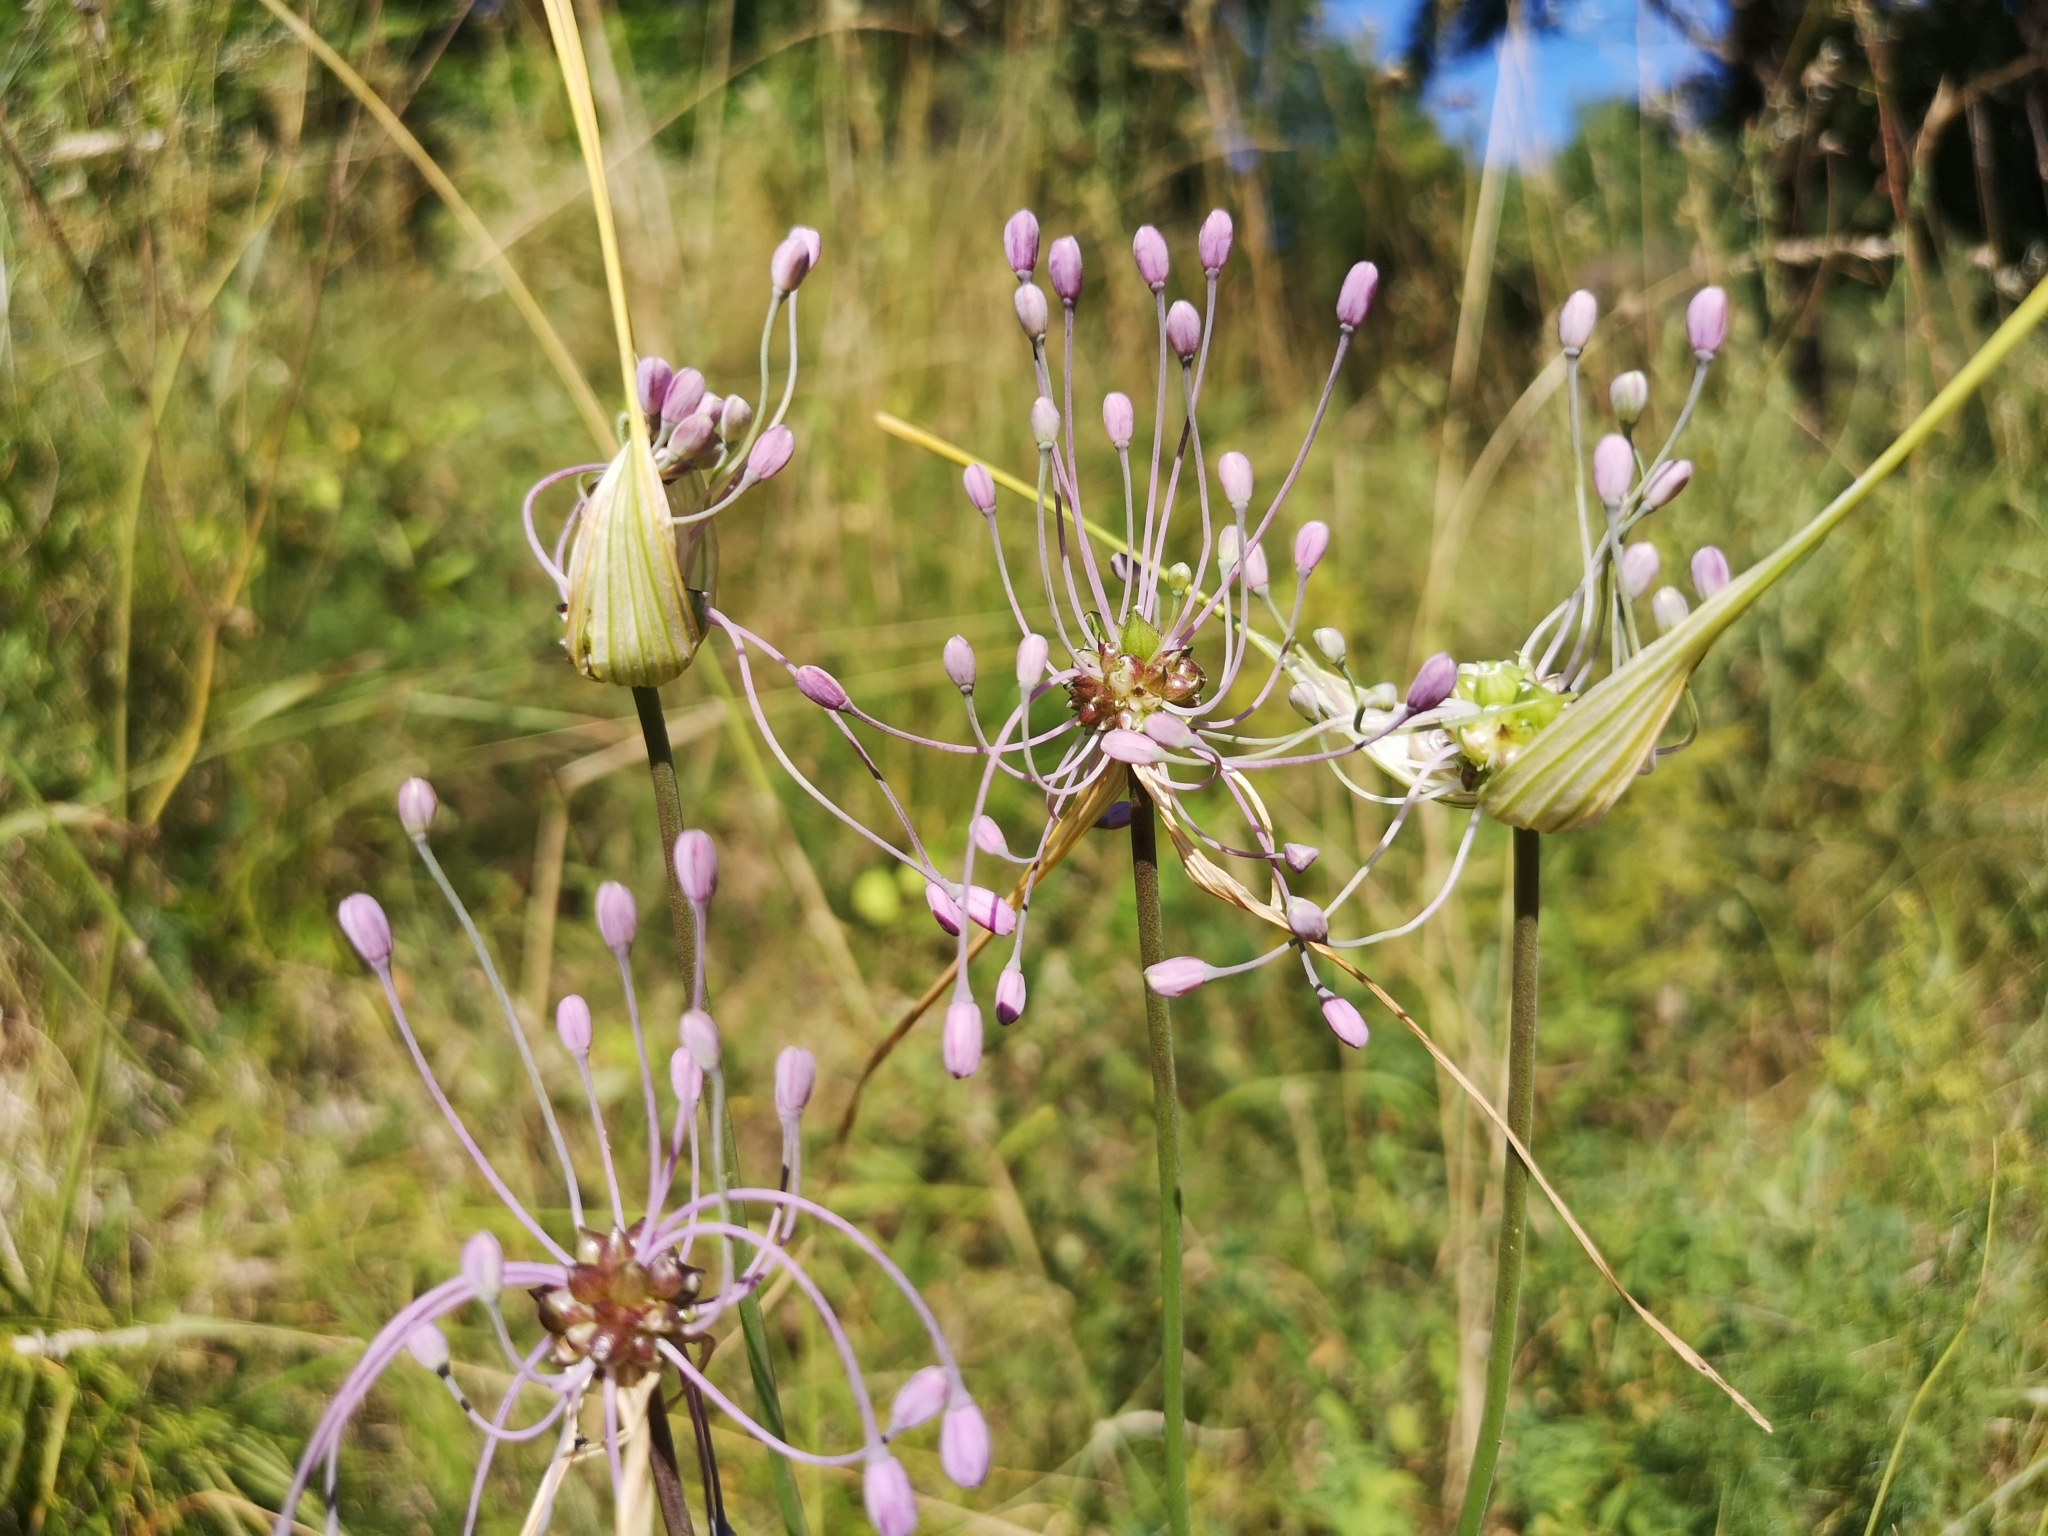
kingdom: Plantae
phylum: Tracheophyta
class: Liliopsida
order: Asparagales
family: Amaryllidaceae
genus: Allium
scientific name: Allium carinatum
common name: Keeled garlic
